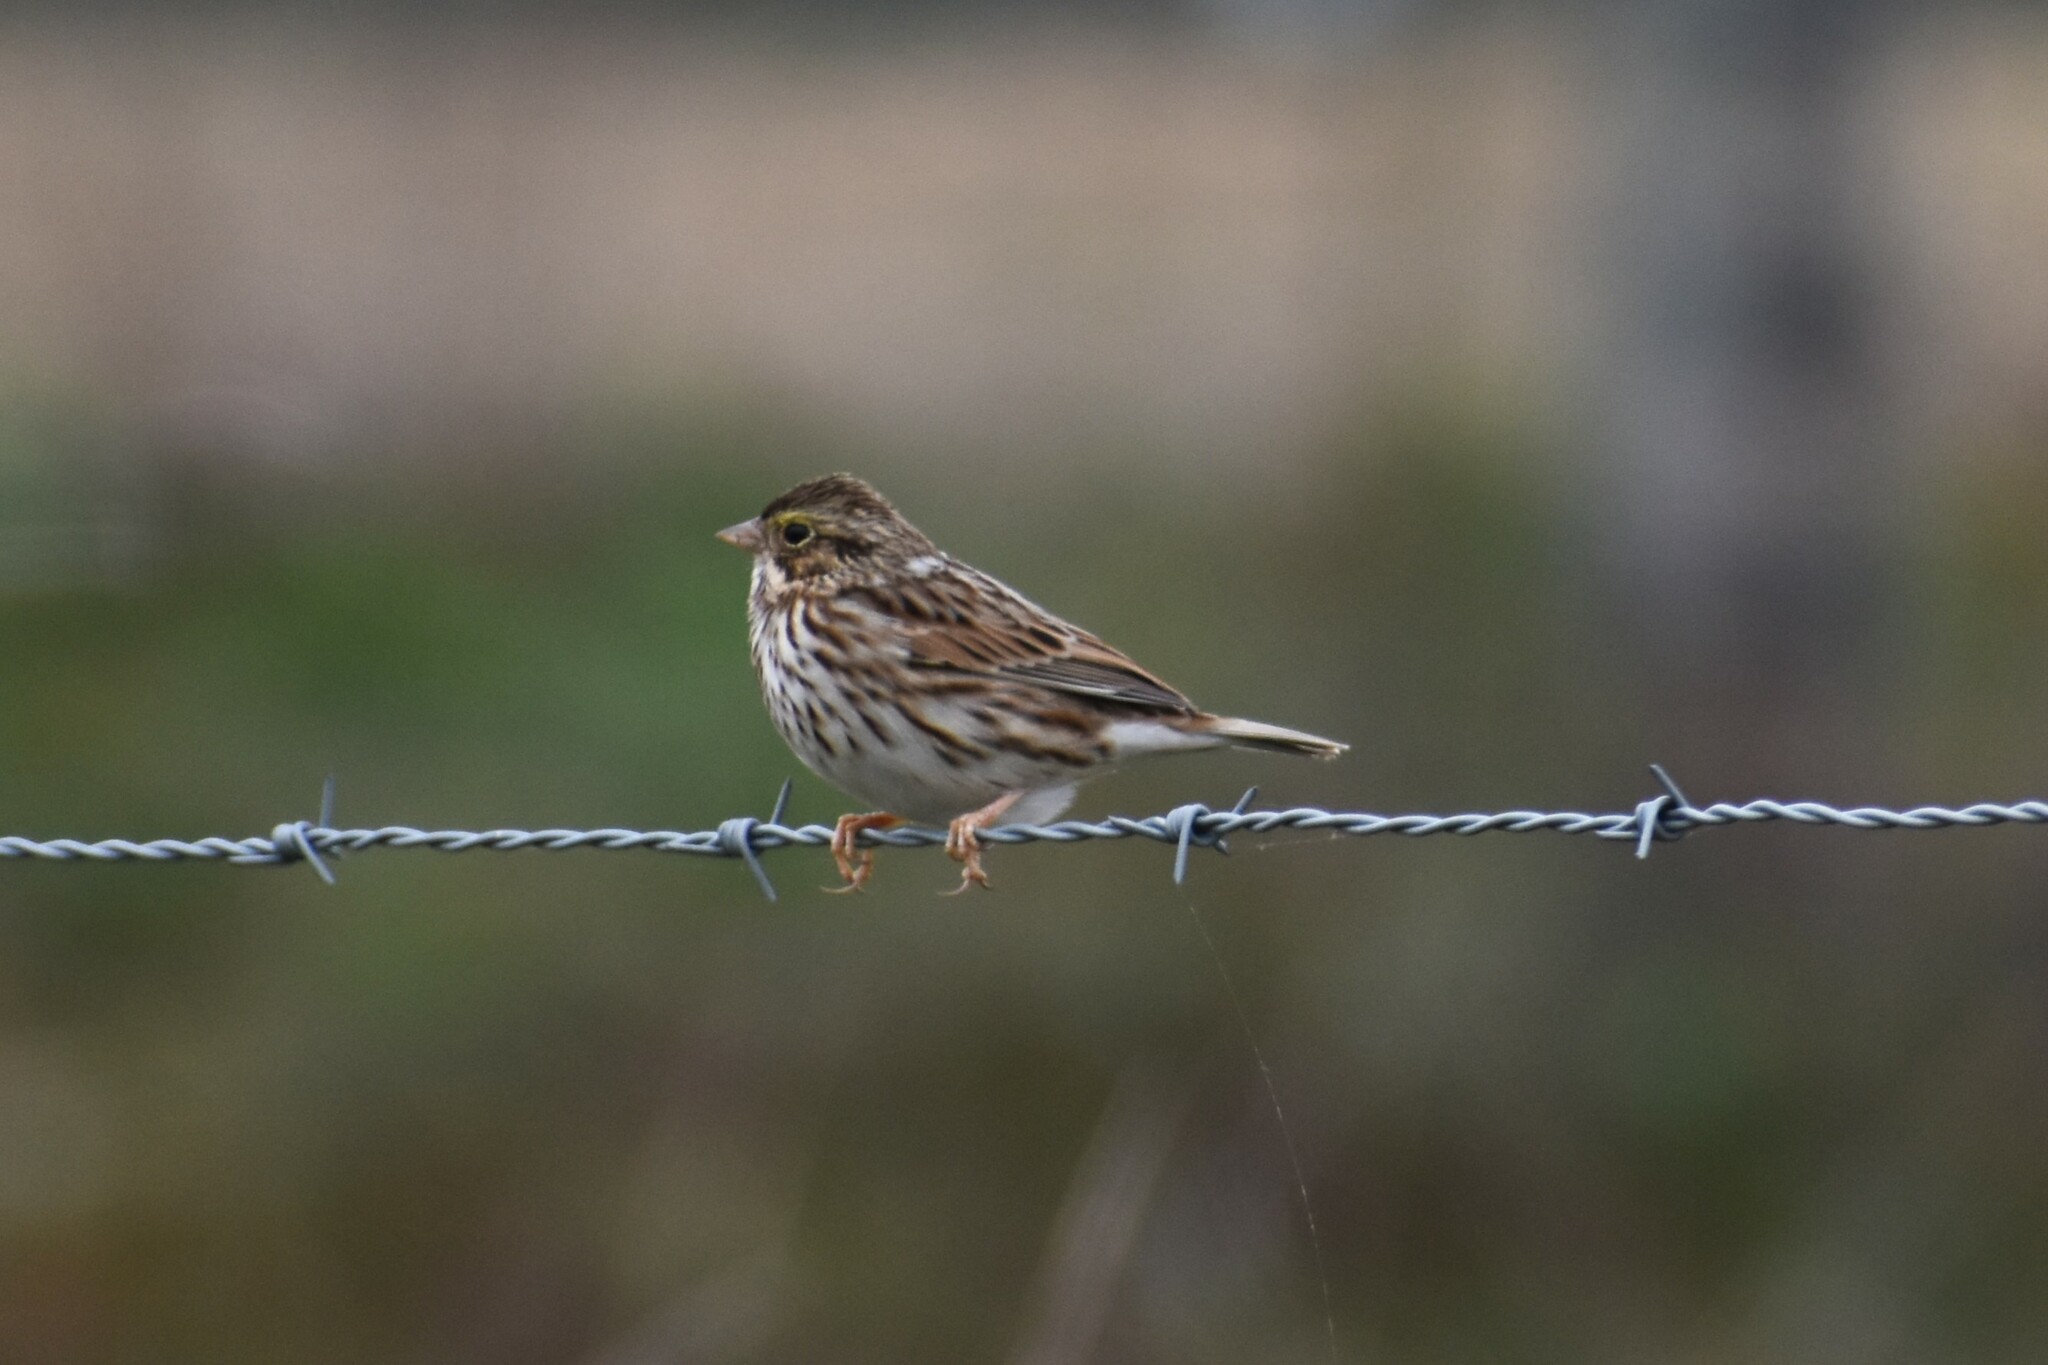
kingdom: Animalia
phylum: Chordata
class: Aves
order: Passeriformes
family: Passerellidae
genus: Passerculus
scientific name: Passerculus sandwichensis
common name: Savannah sparrow
